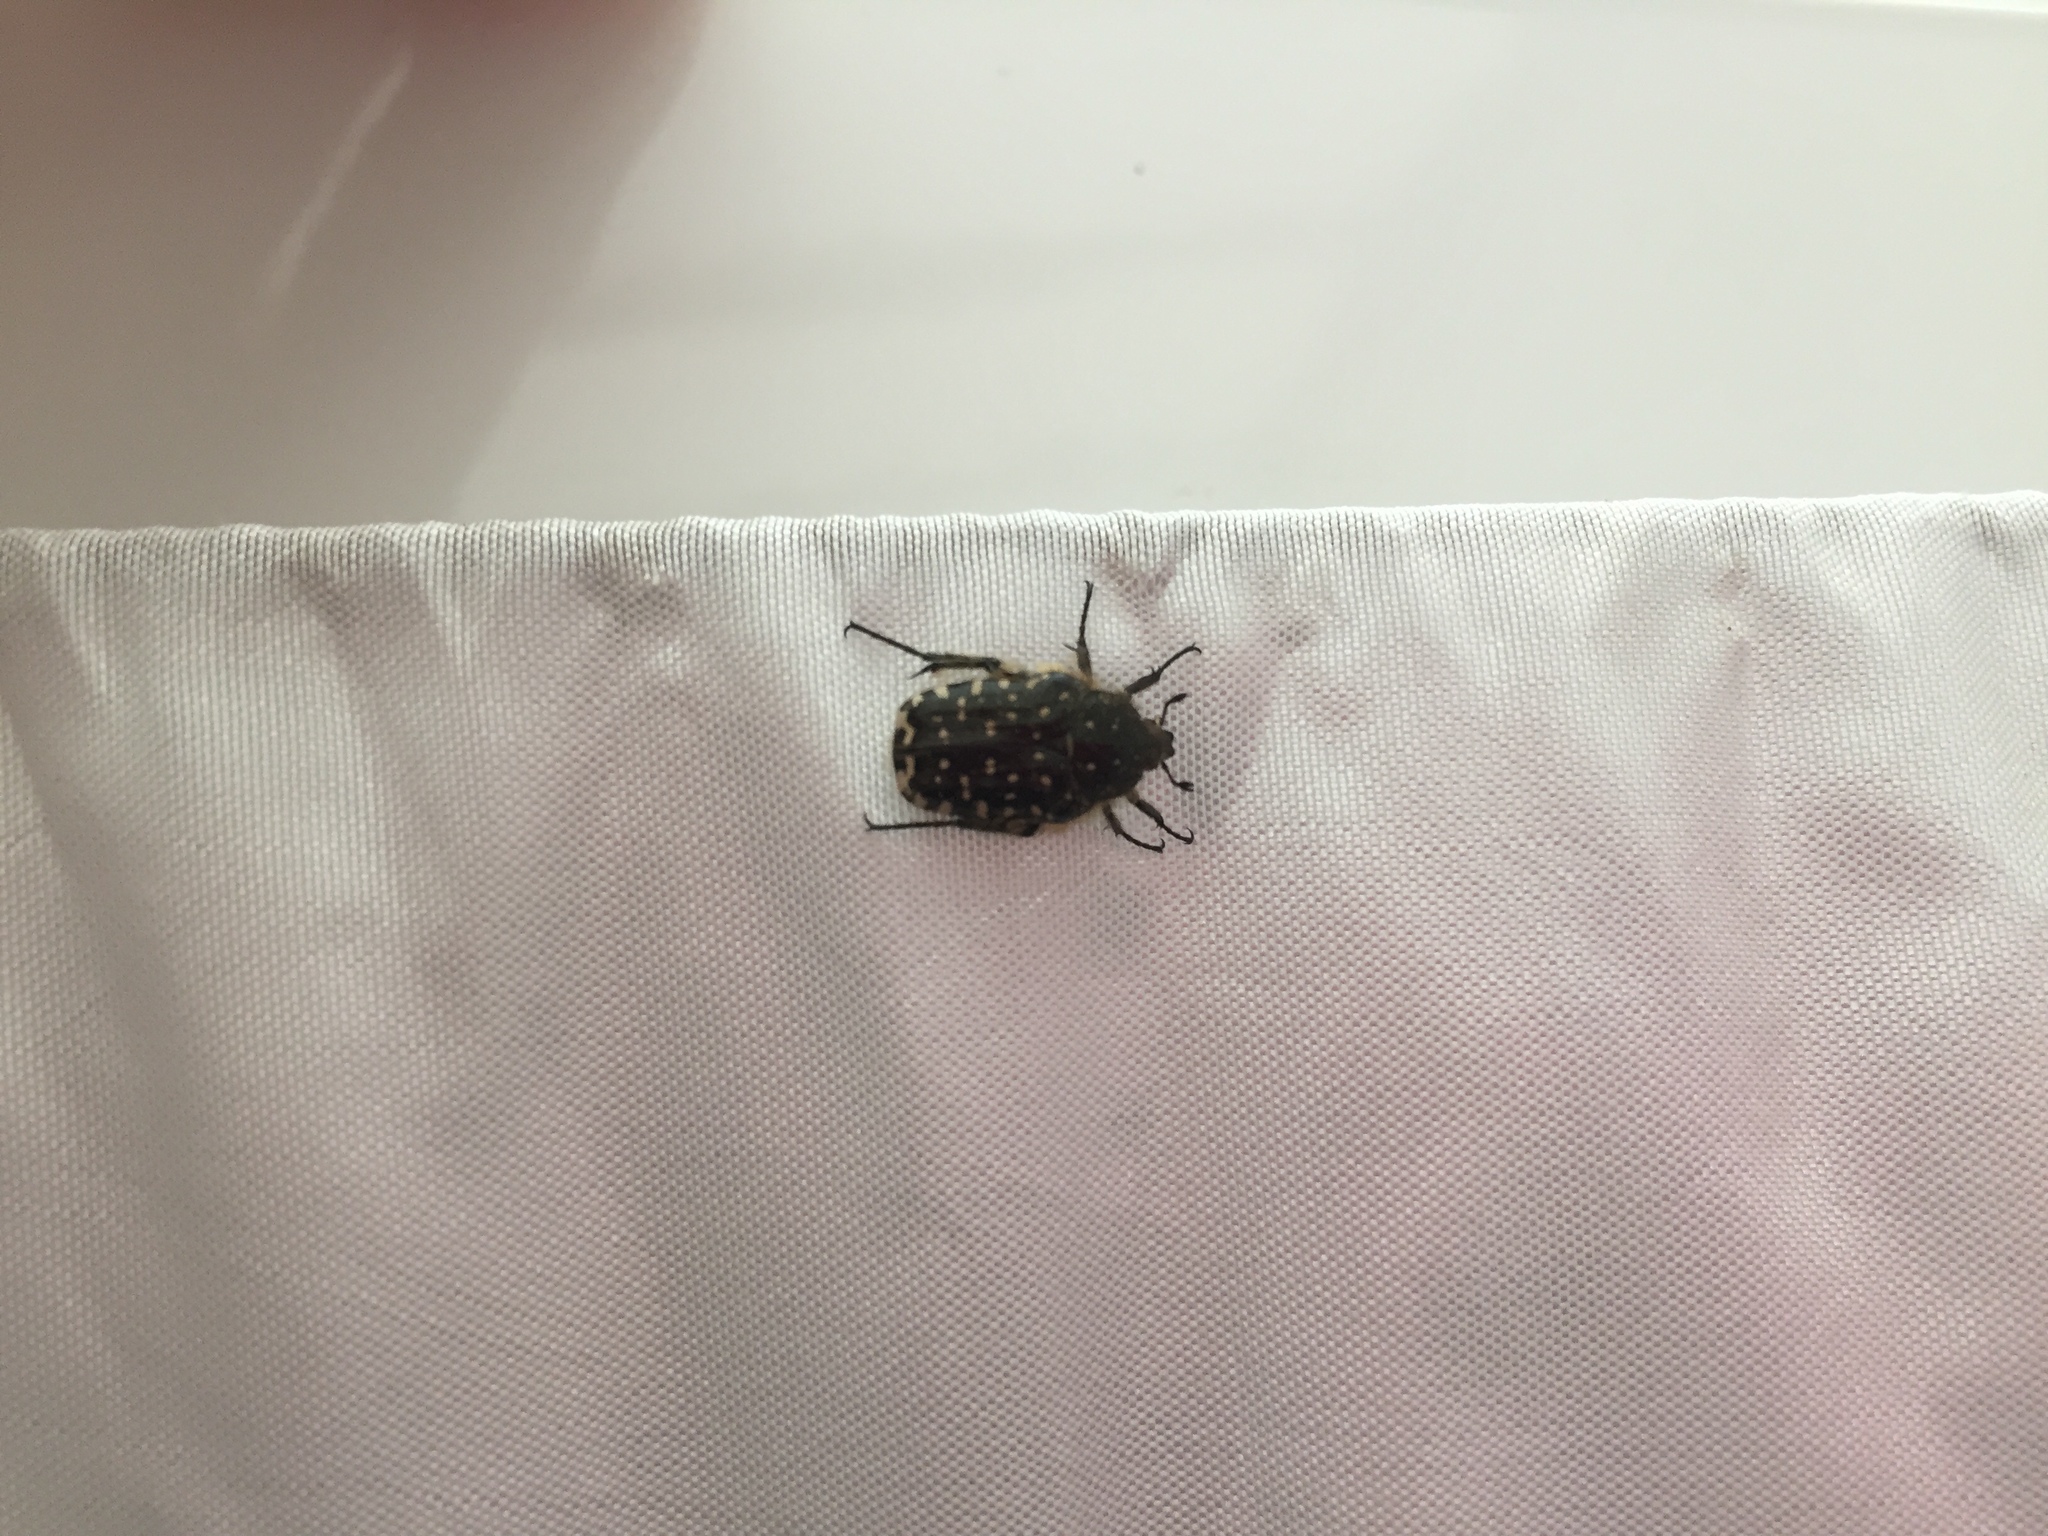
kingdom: Animalia
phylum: Arthropoda
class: Insecta
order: Coleoptera
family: Scarabaeidae
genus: Oxythyrea
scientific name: Oxythyrea funesta
